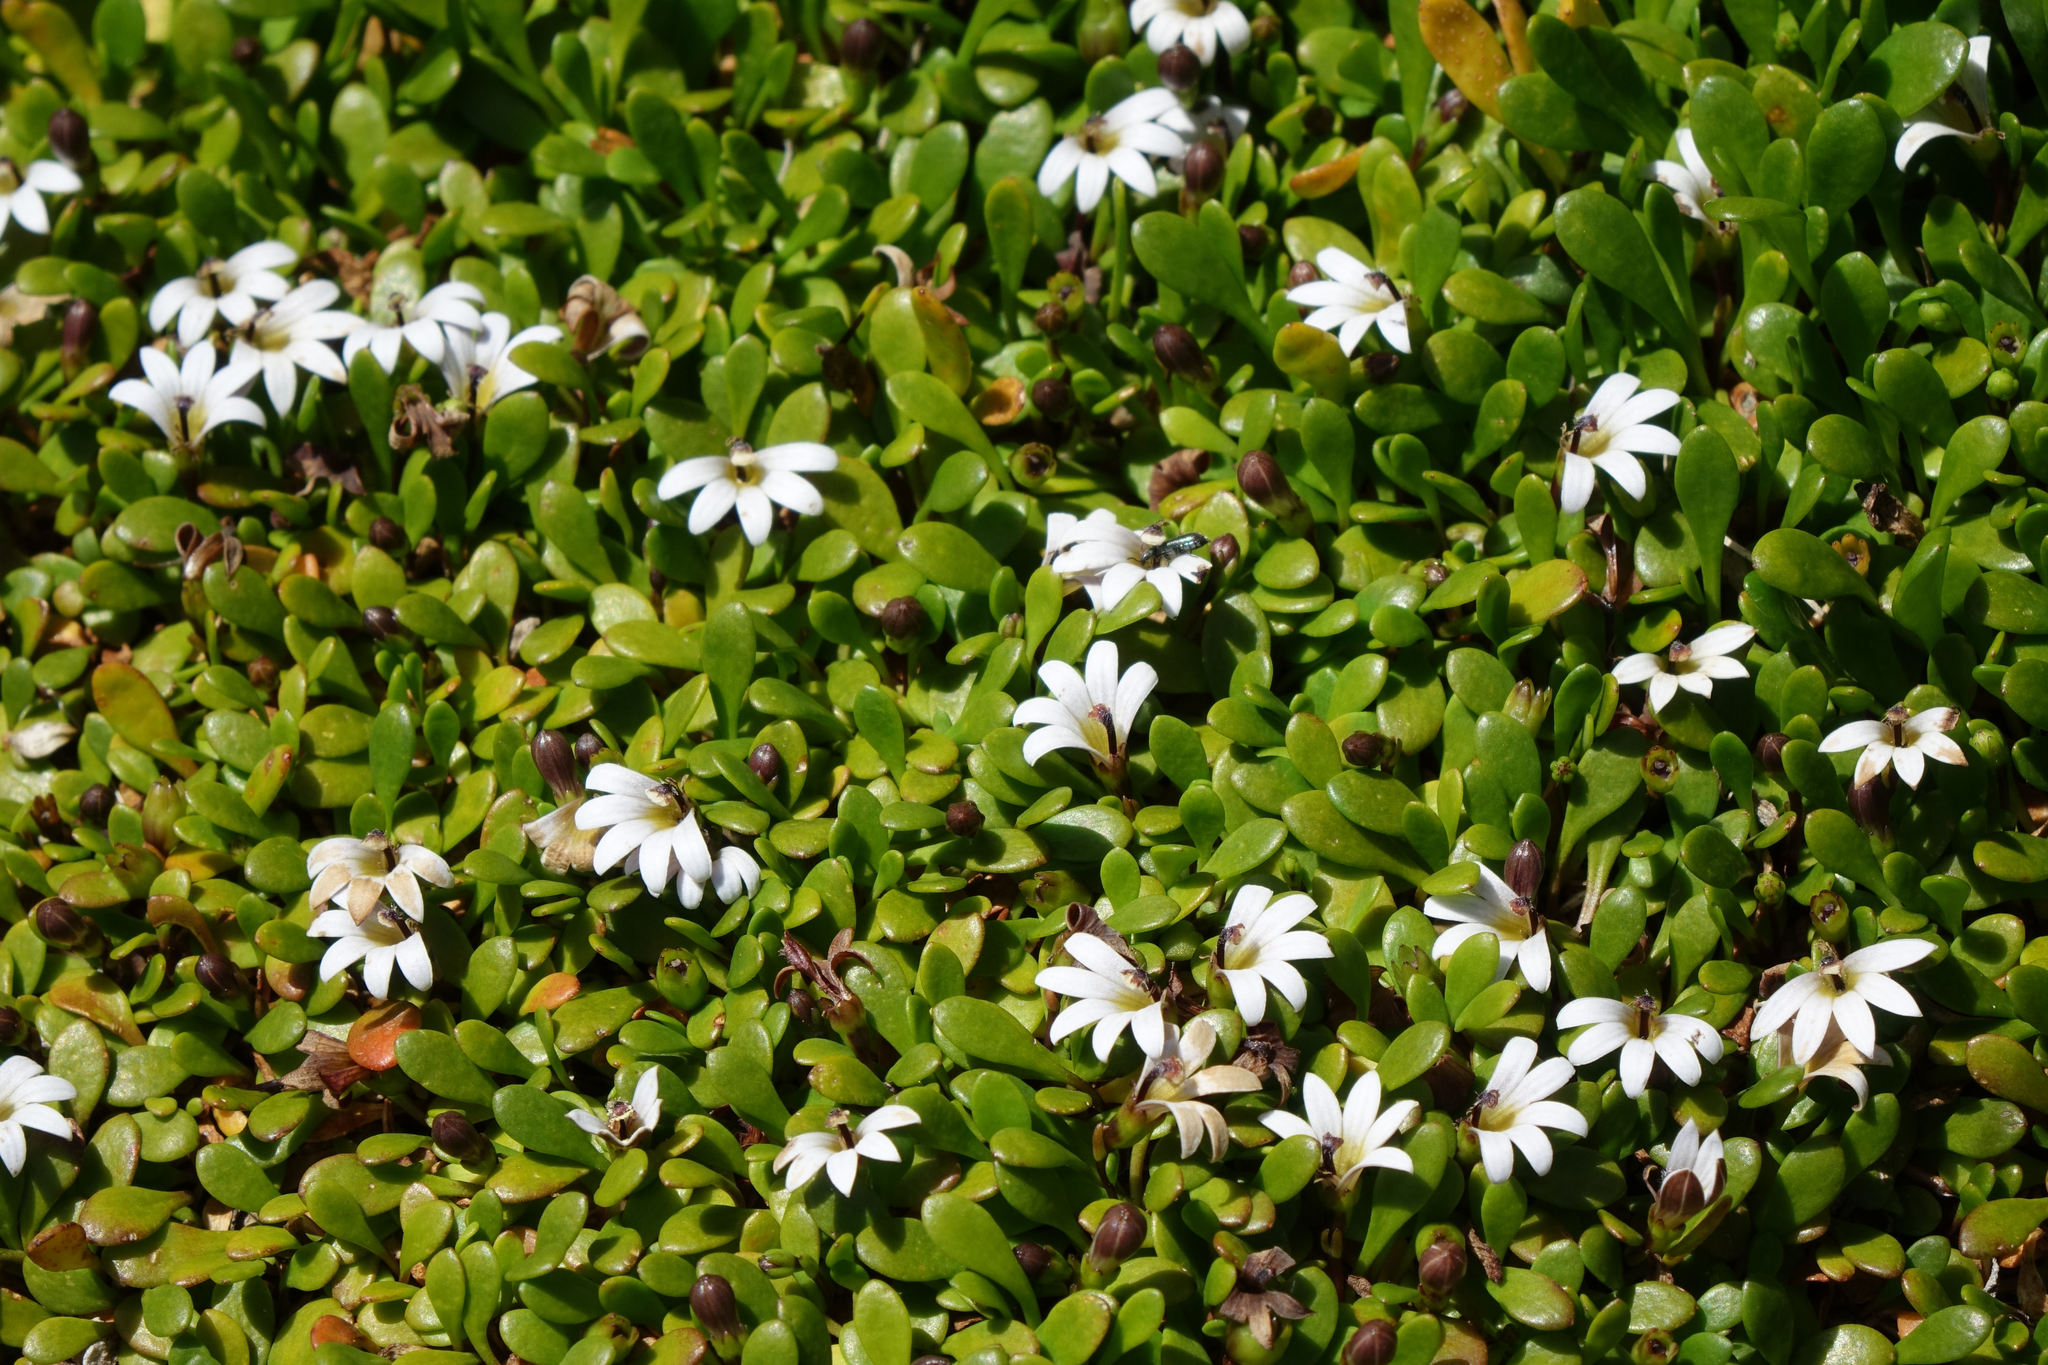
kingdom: Plantae
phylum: Tracheophyta
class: Magnoliopsida
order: Asterales
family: Goodeniaceae
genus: Goodenia
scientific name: Goodenia radicans
